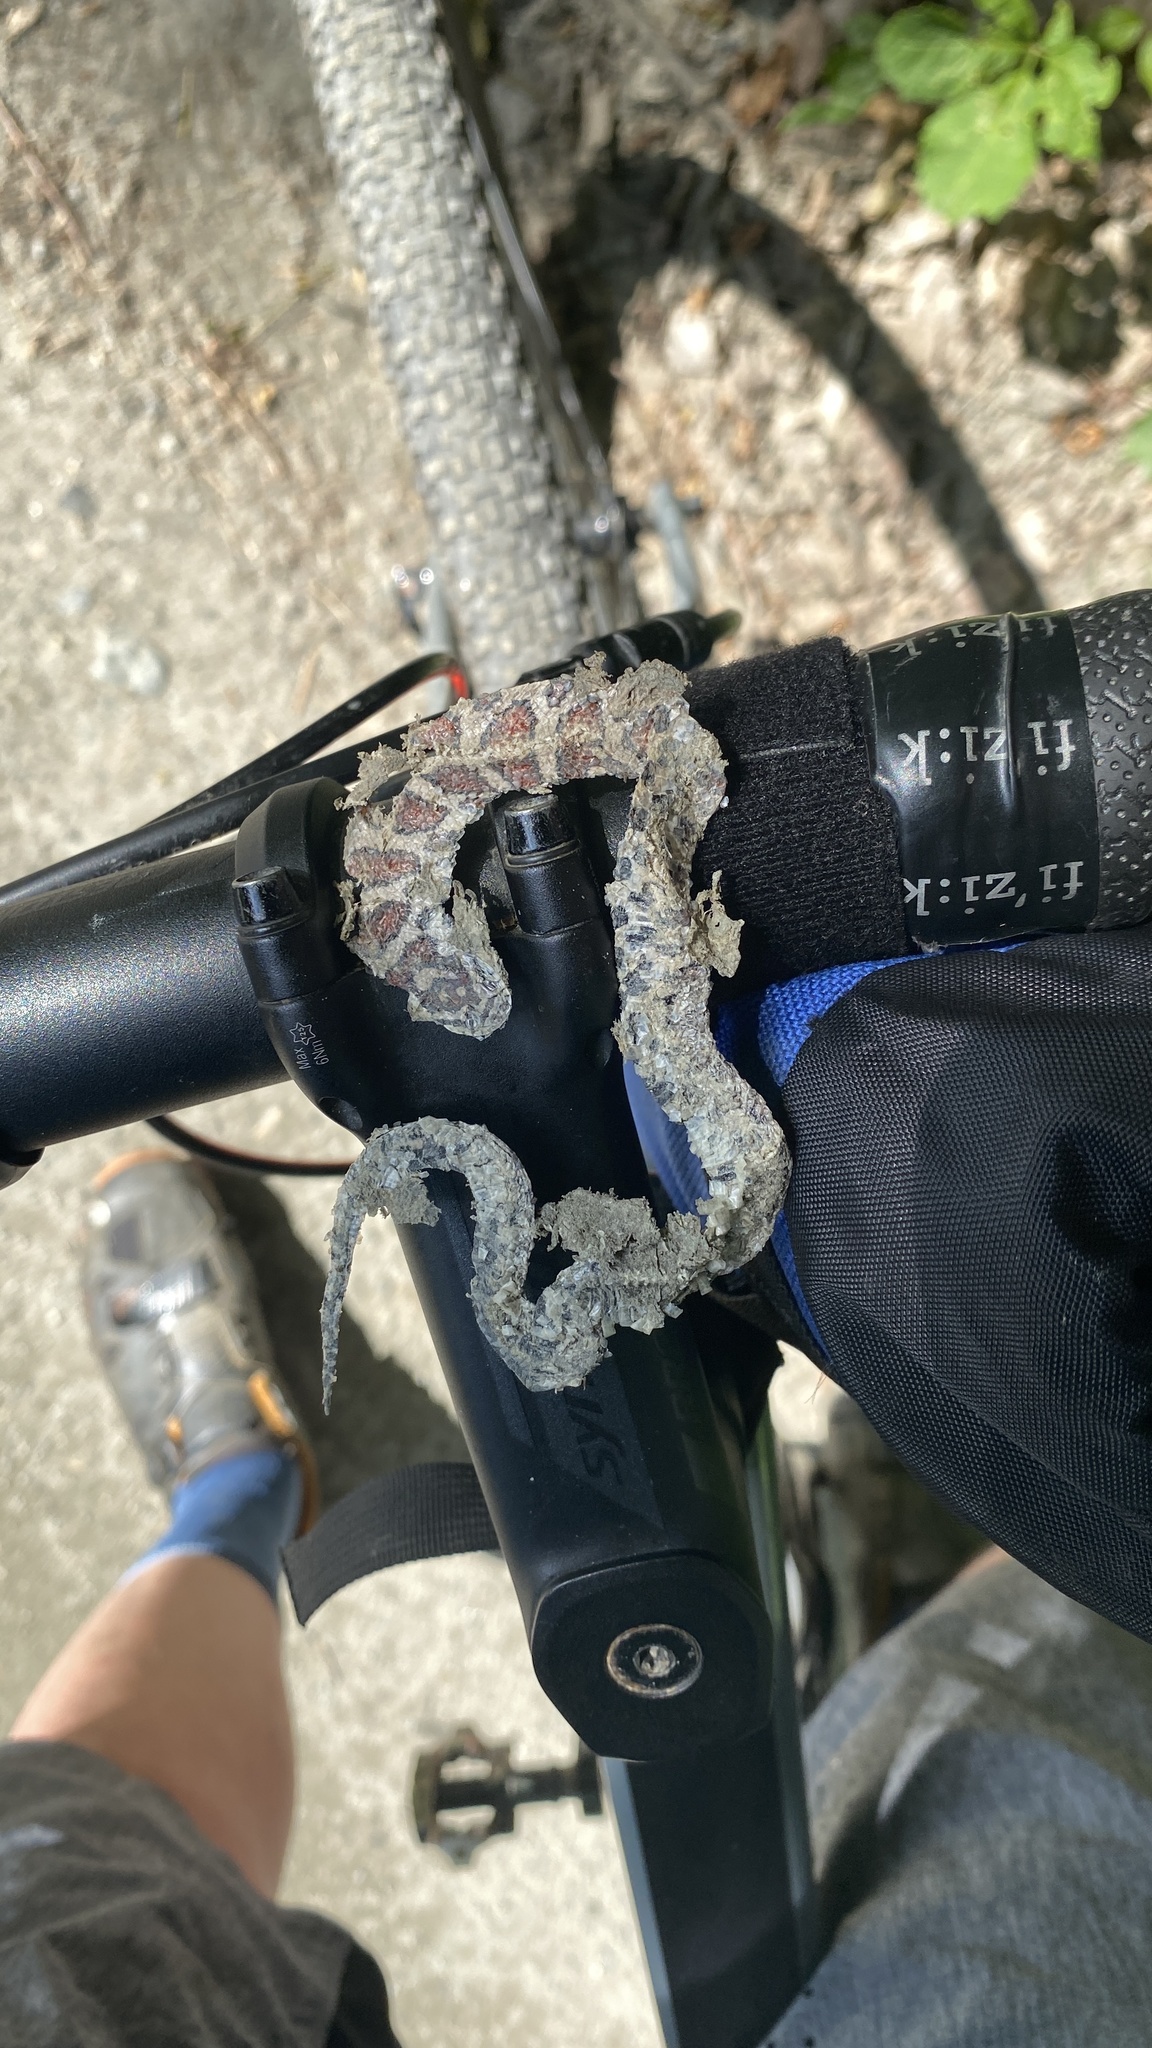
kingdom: Animalia
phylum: Chordata
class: Squamata
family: Colubridae
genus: Lampropeltis
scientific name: Lampropeltis triangulum
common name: Eastern milksnake
